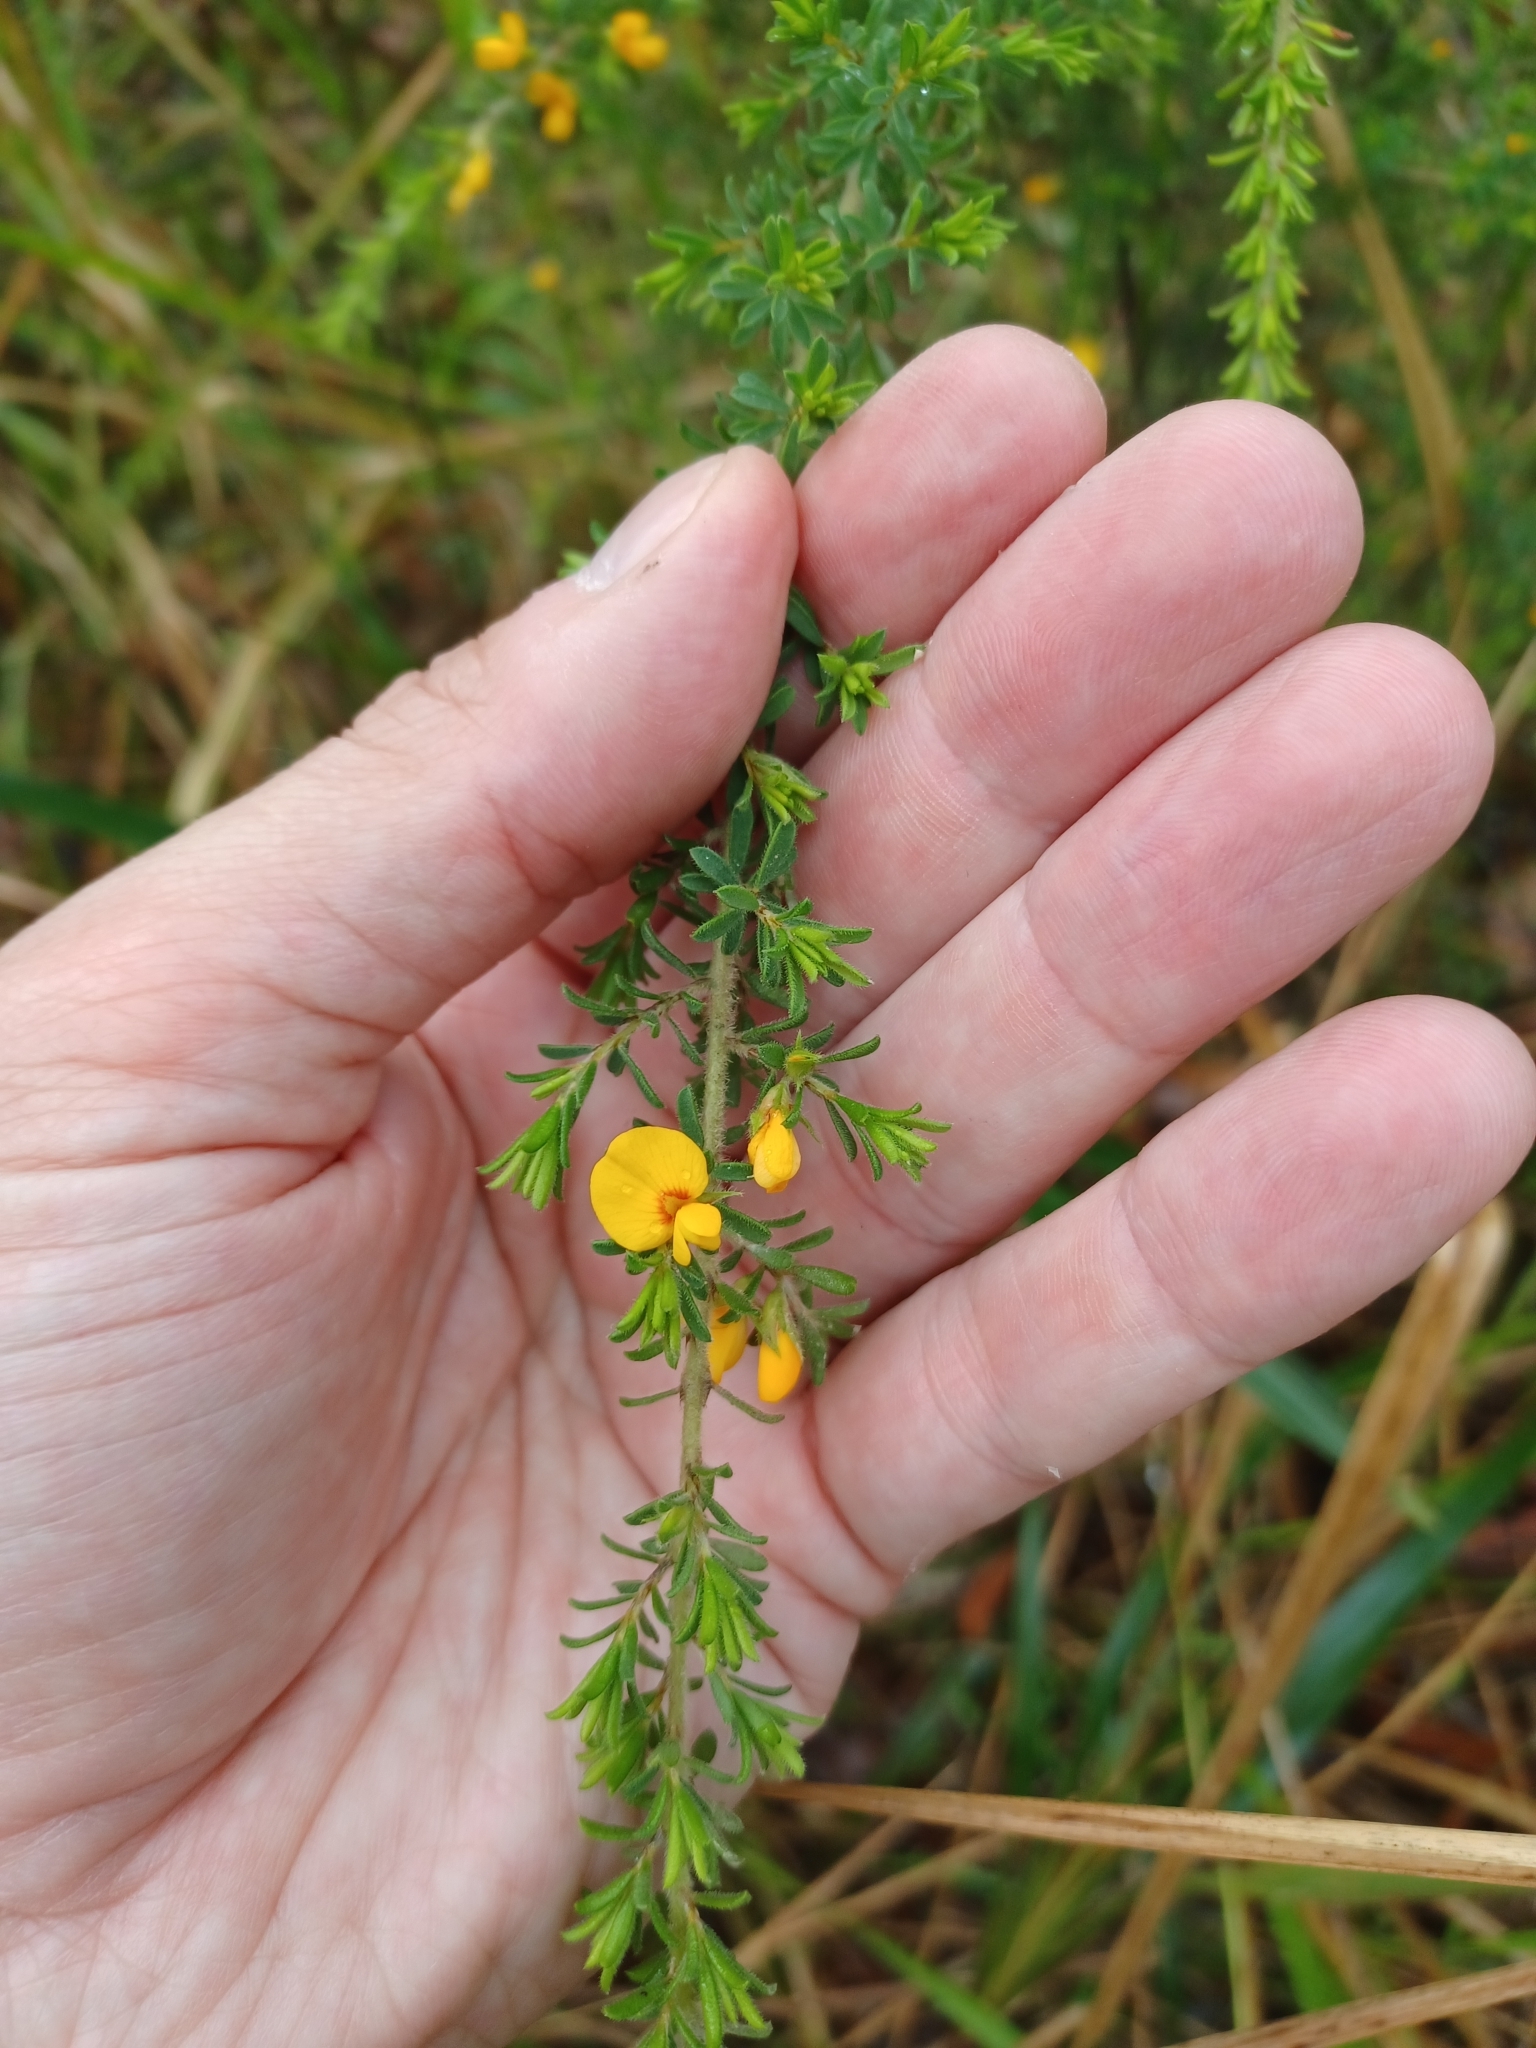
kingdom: Plantae
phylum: Tracheophyta
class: Magnoliopsida
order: Fabales
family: Fabaceae
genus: Pultenaea
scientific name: Pultenaea villosa
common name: Bronze bush-pea
